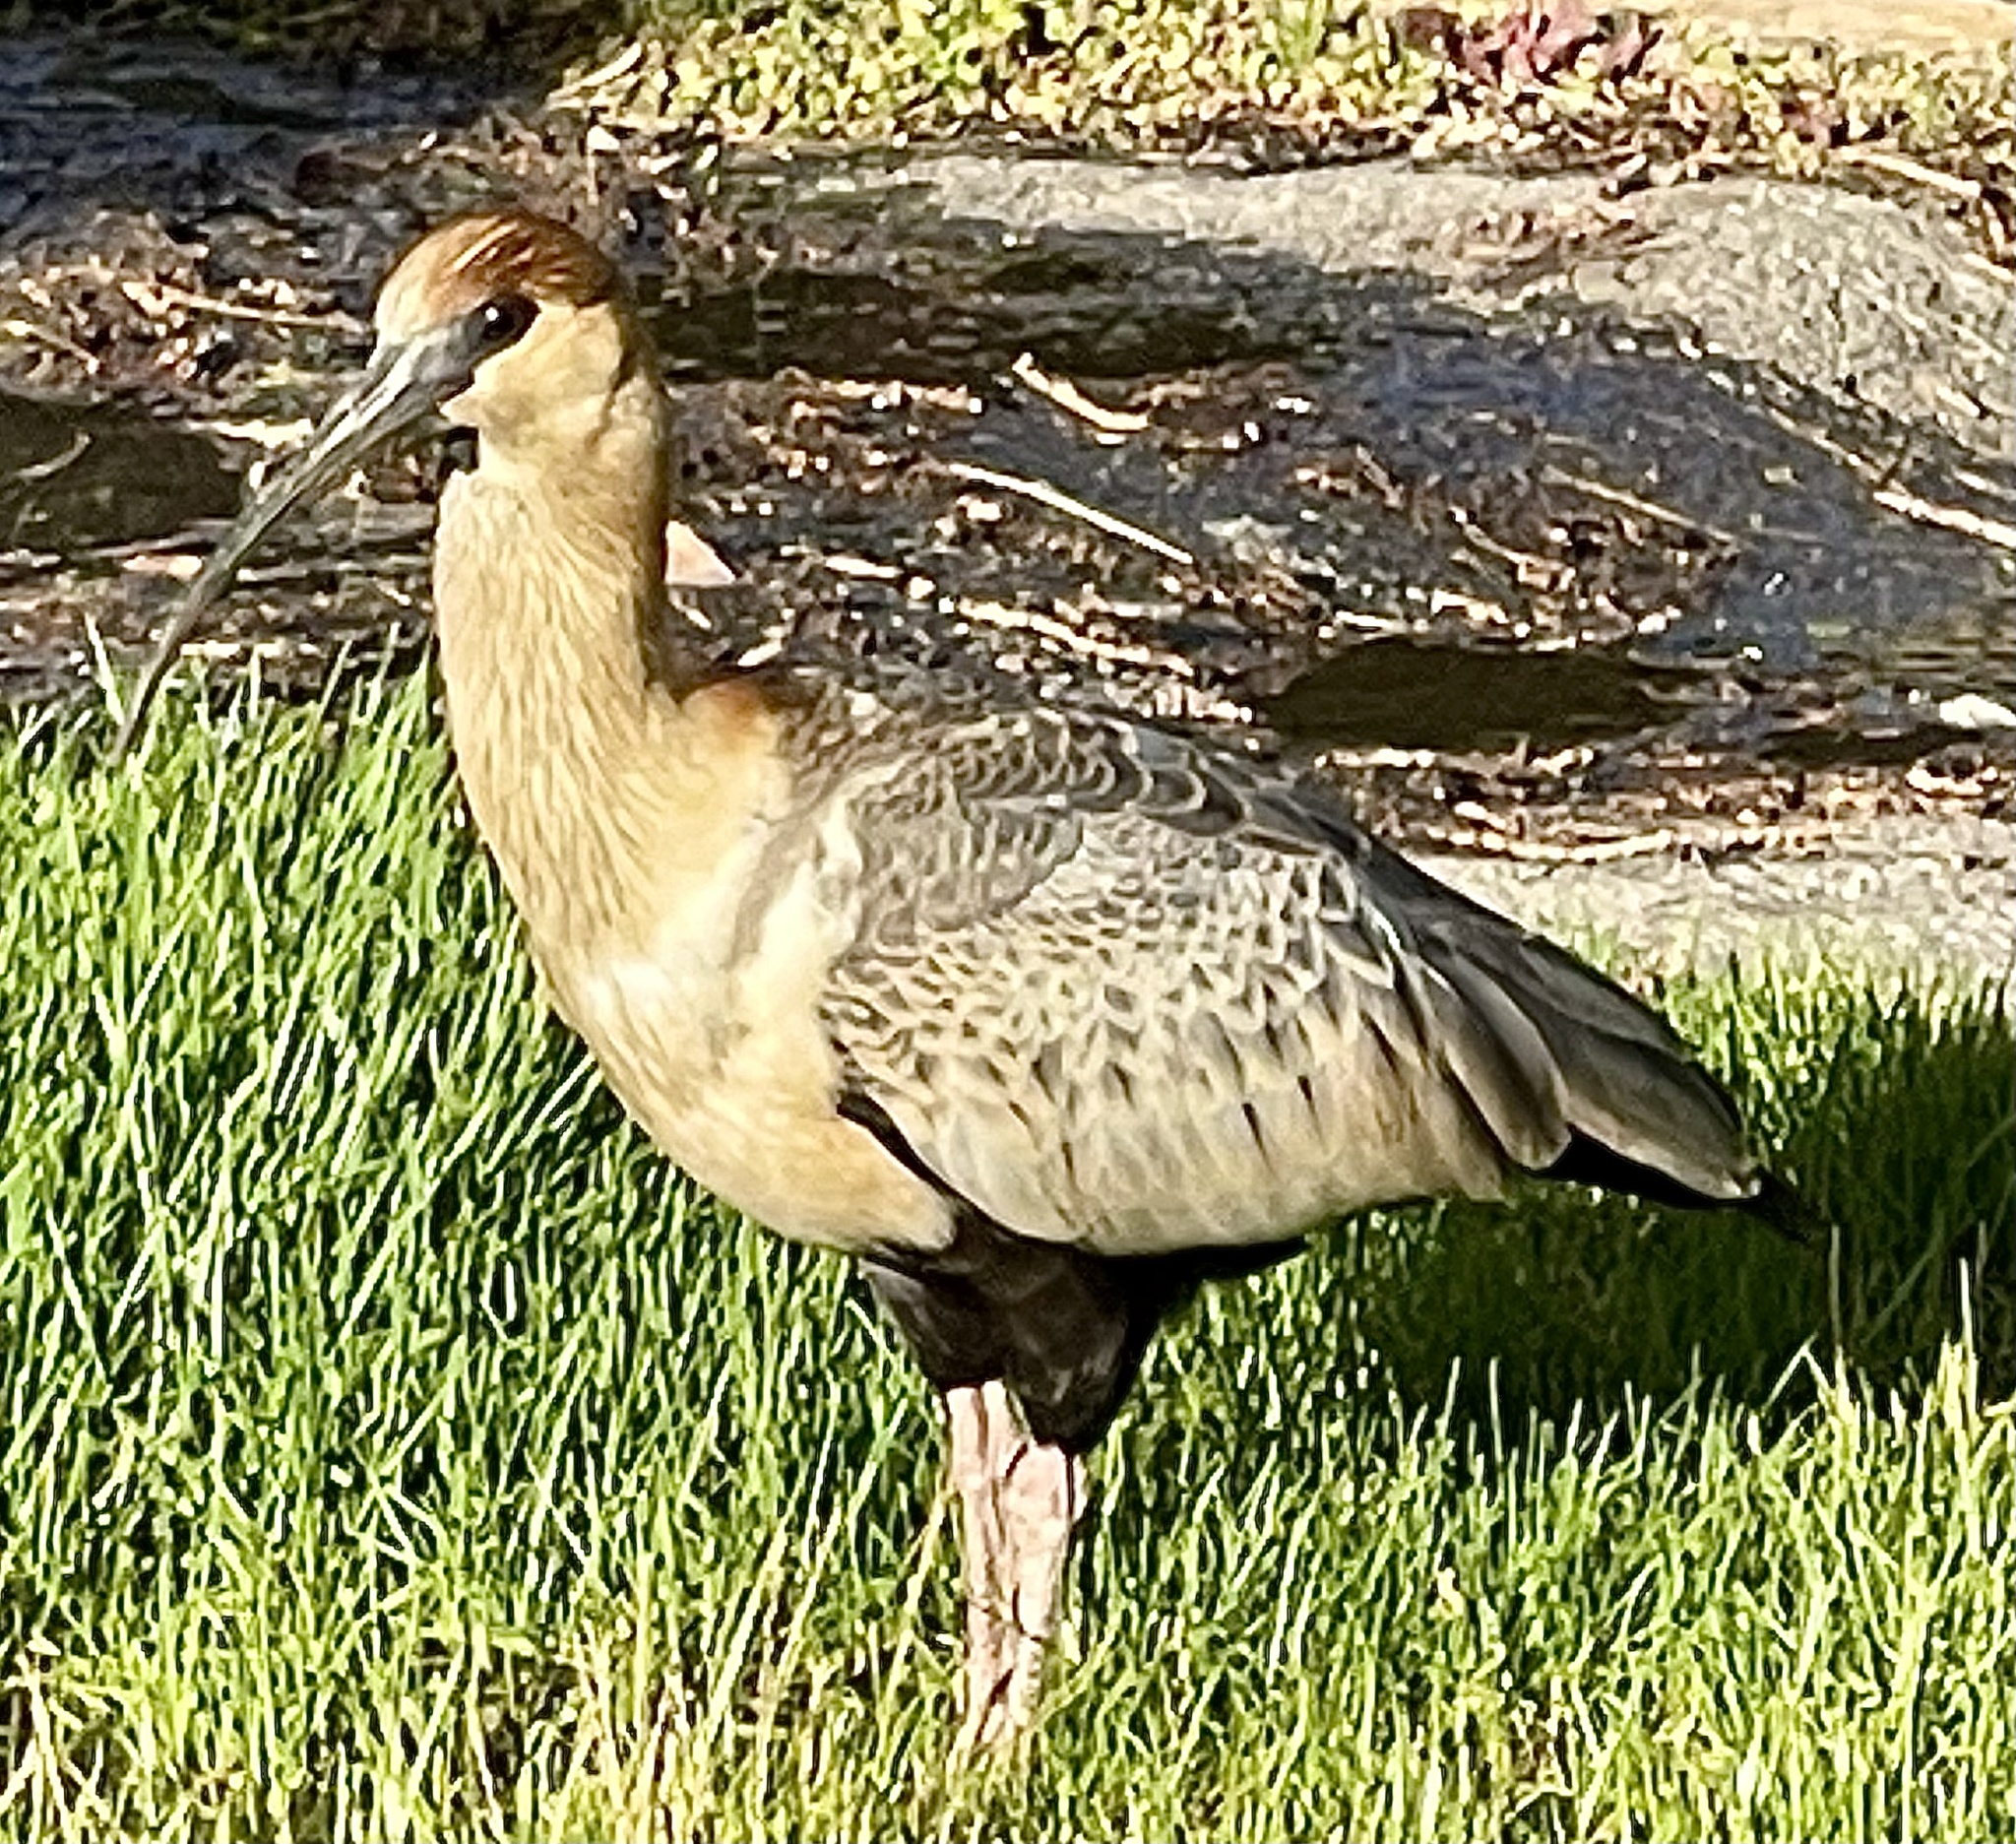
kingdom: Animalia
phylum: Chordata
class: Aves
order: Pelecaniformes
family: Threskiornithidae
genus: Theristicus
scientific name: Theristicus melanopis
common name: Black-faced ibis
